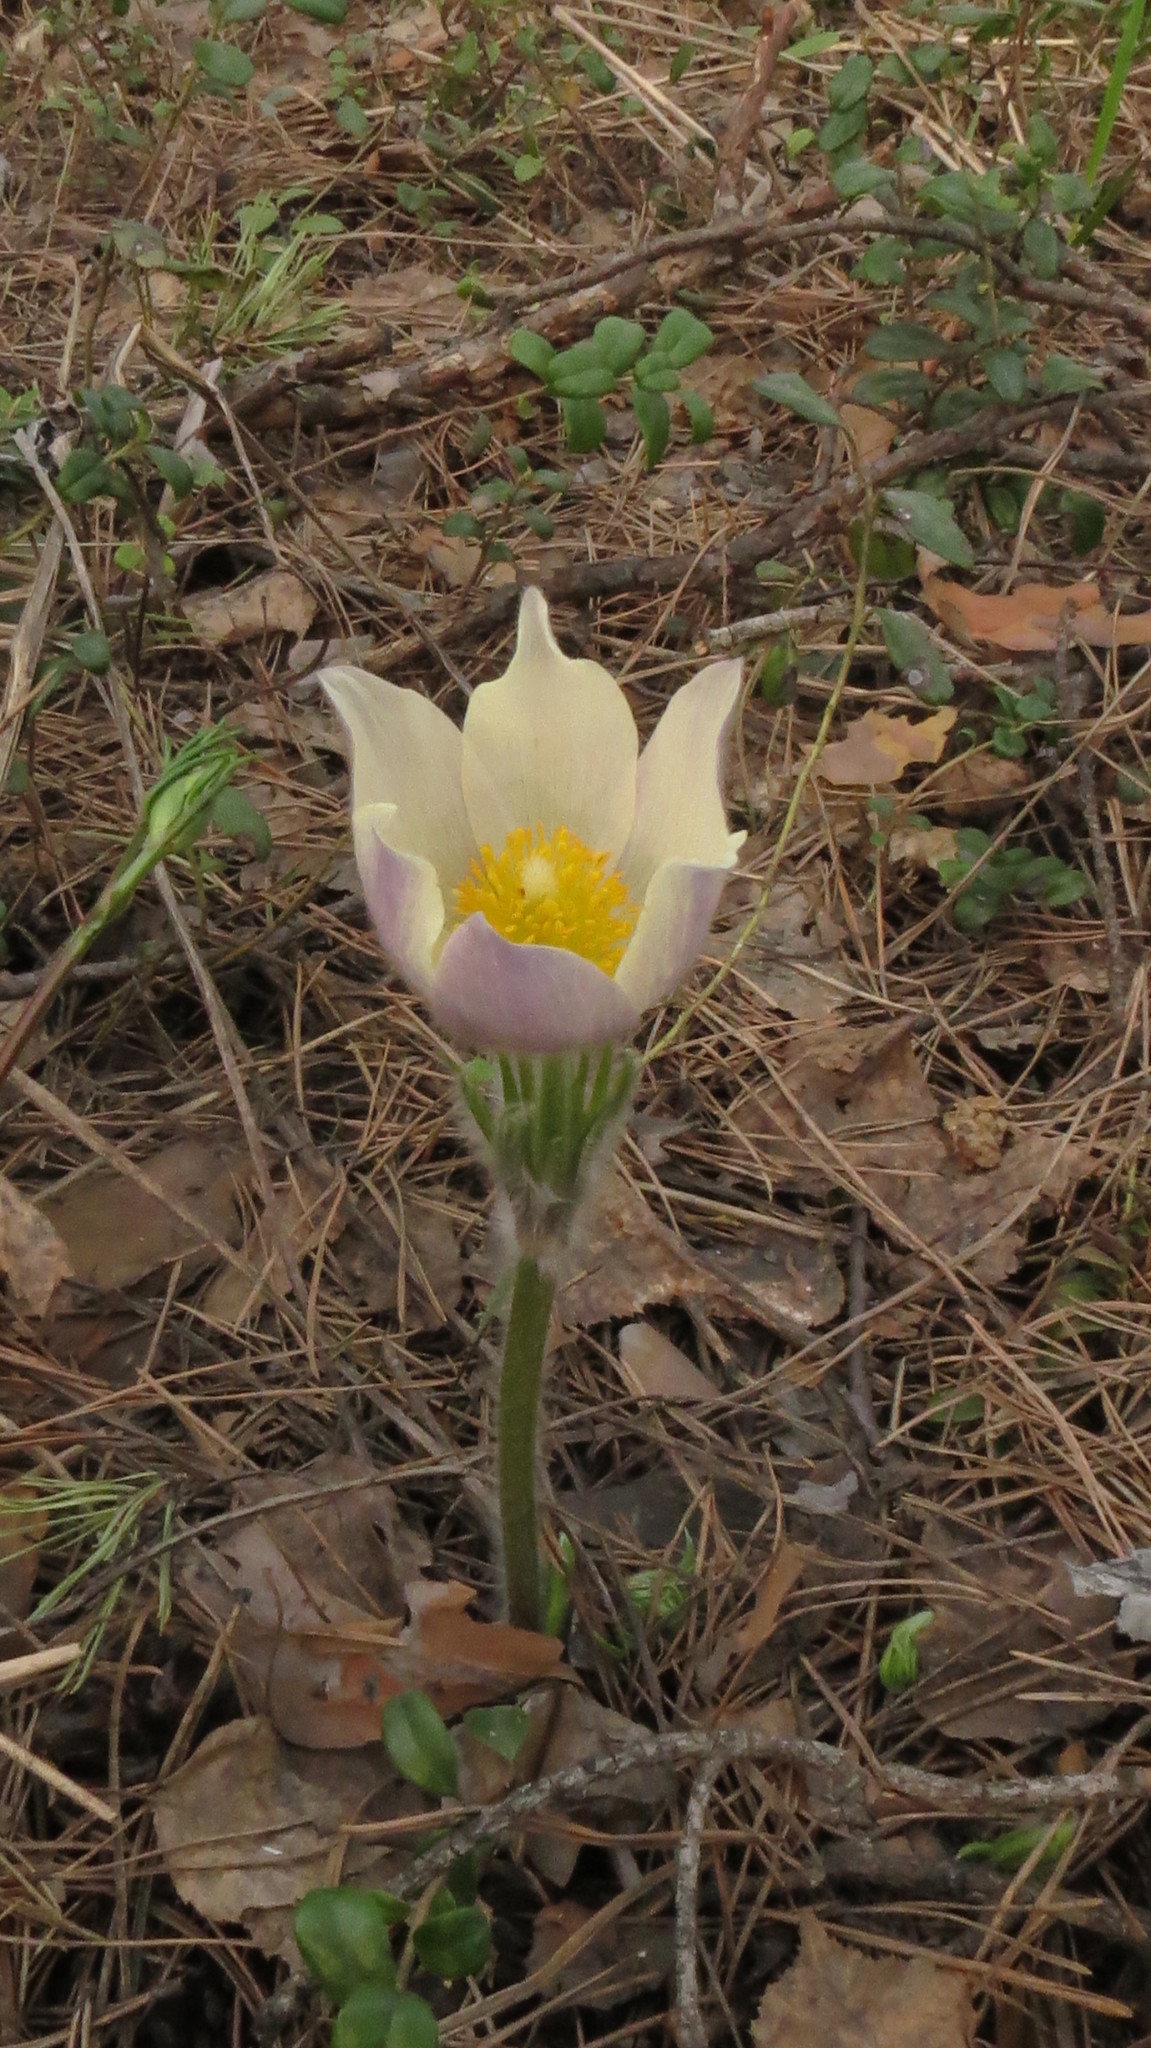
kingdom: Plantae
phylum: Tracheophyta
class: Magnoliopsida
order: Ranunculales
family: Ranunculaceae
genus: Pulsatilla
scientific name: Pulsatilla patens
